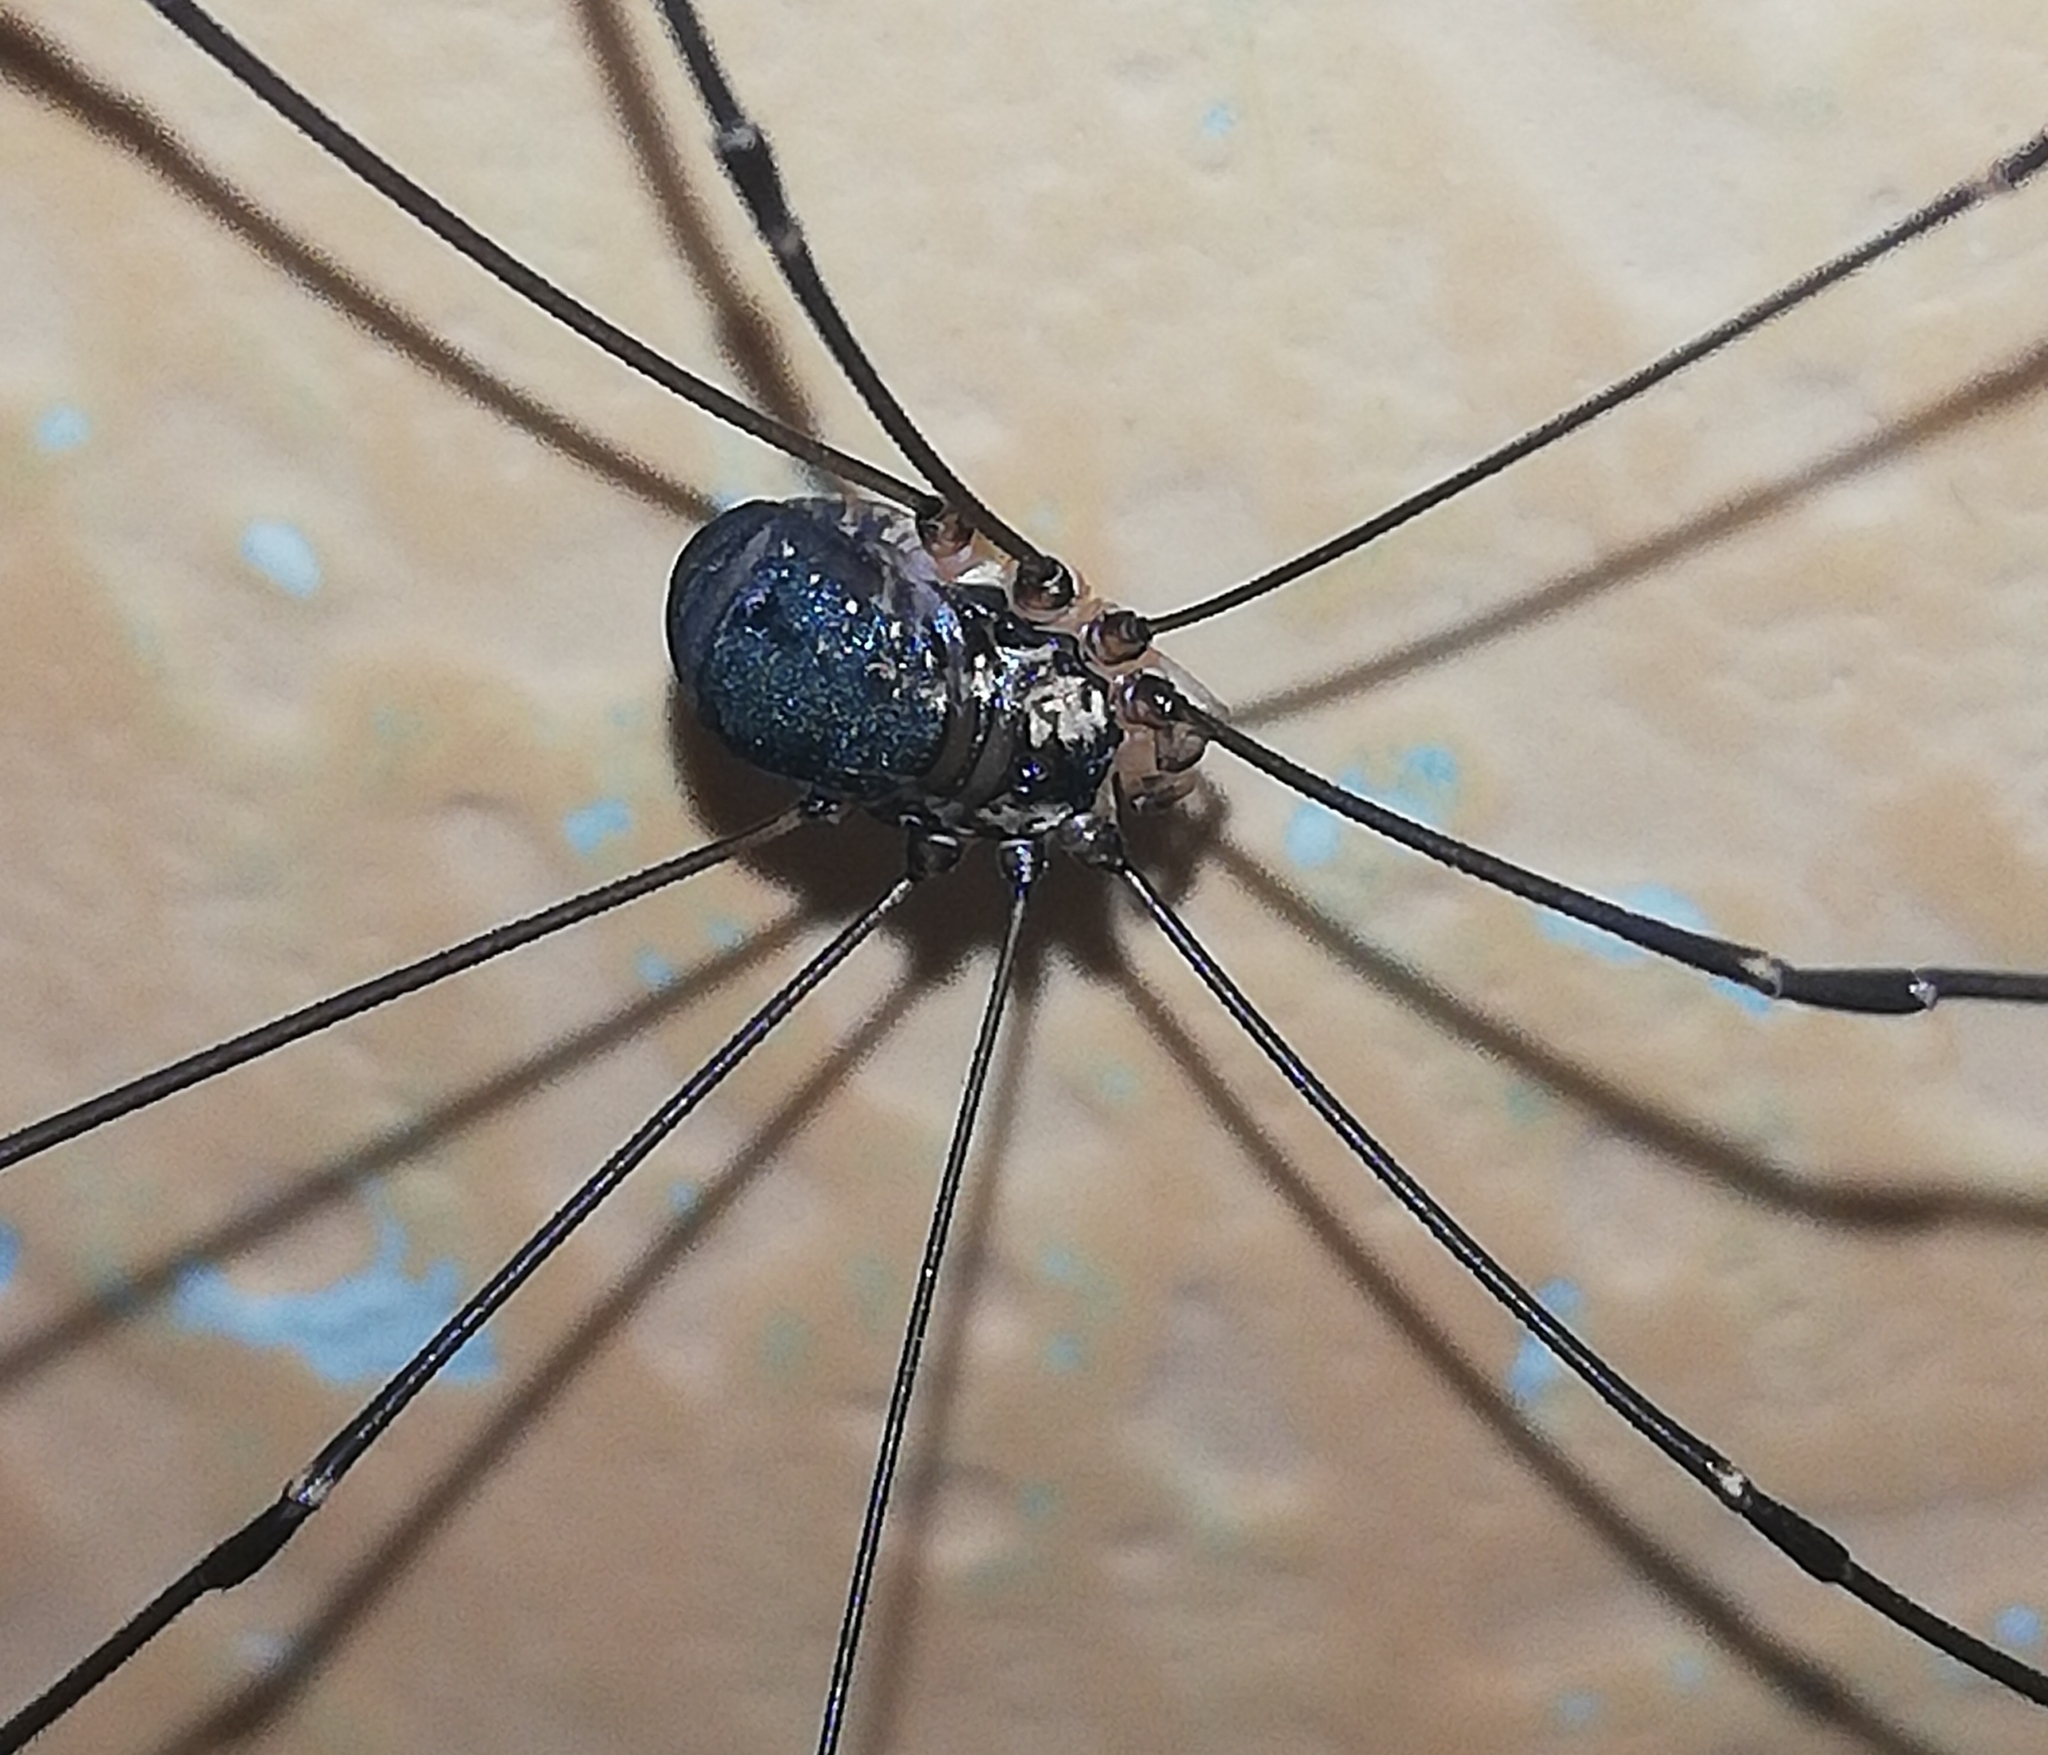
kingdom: Animalia
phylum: Arthropoda
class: Arachnida
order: Opiliones
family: Sclerosomatidae
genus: Leiobunum
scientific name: Leiobunum
